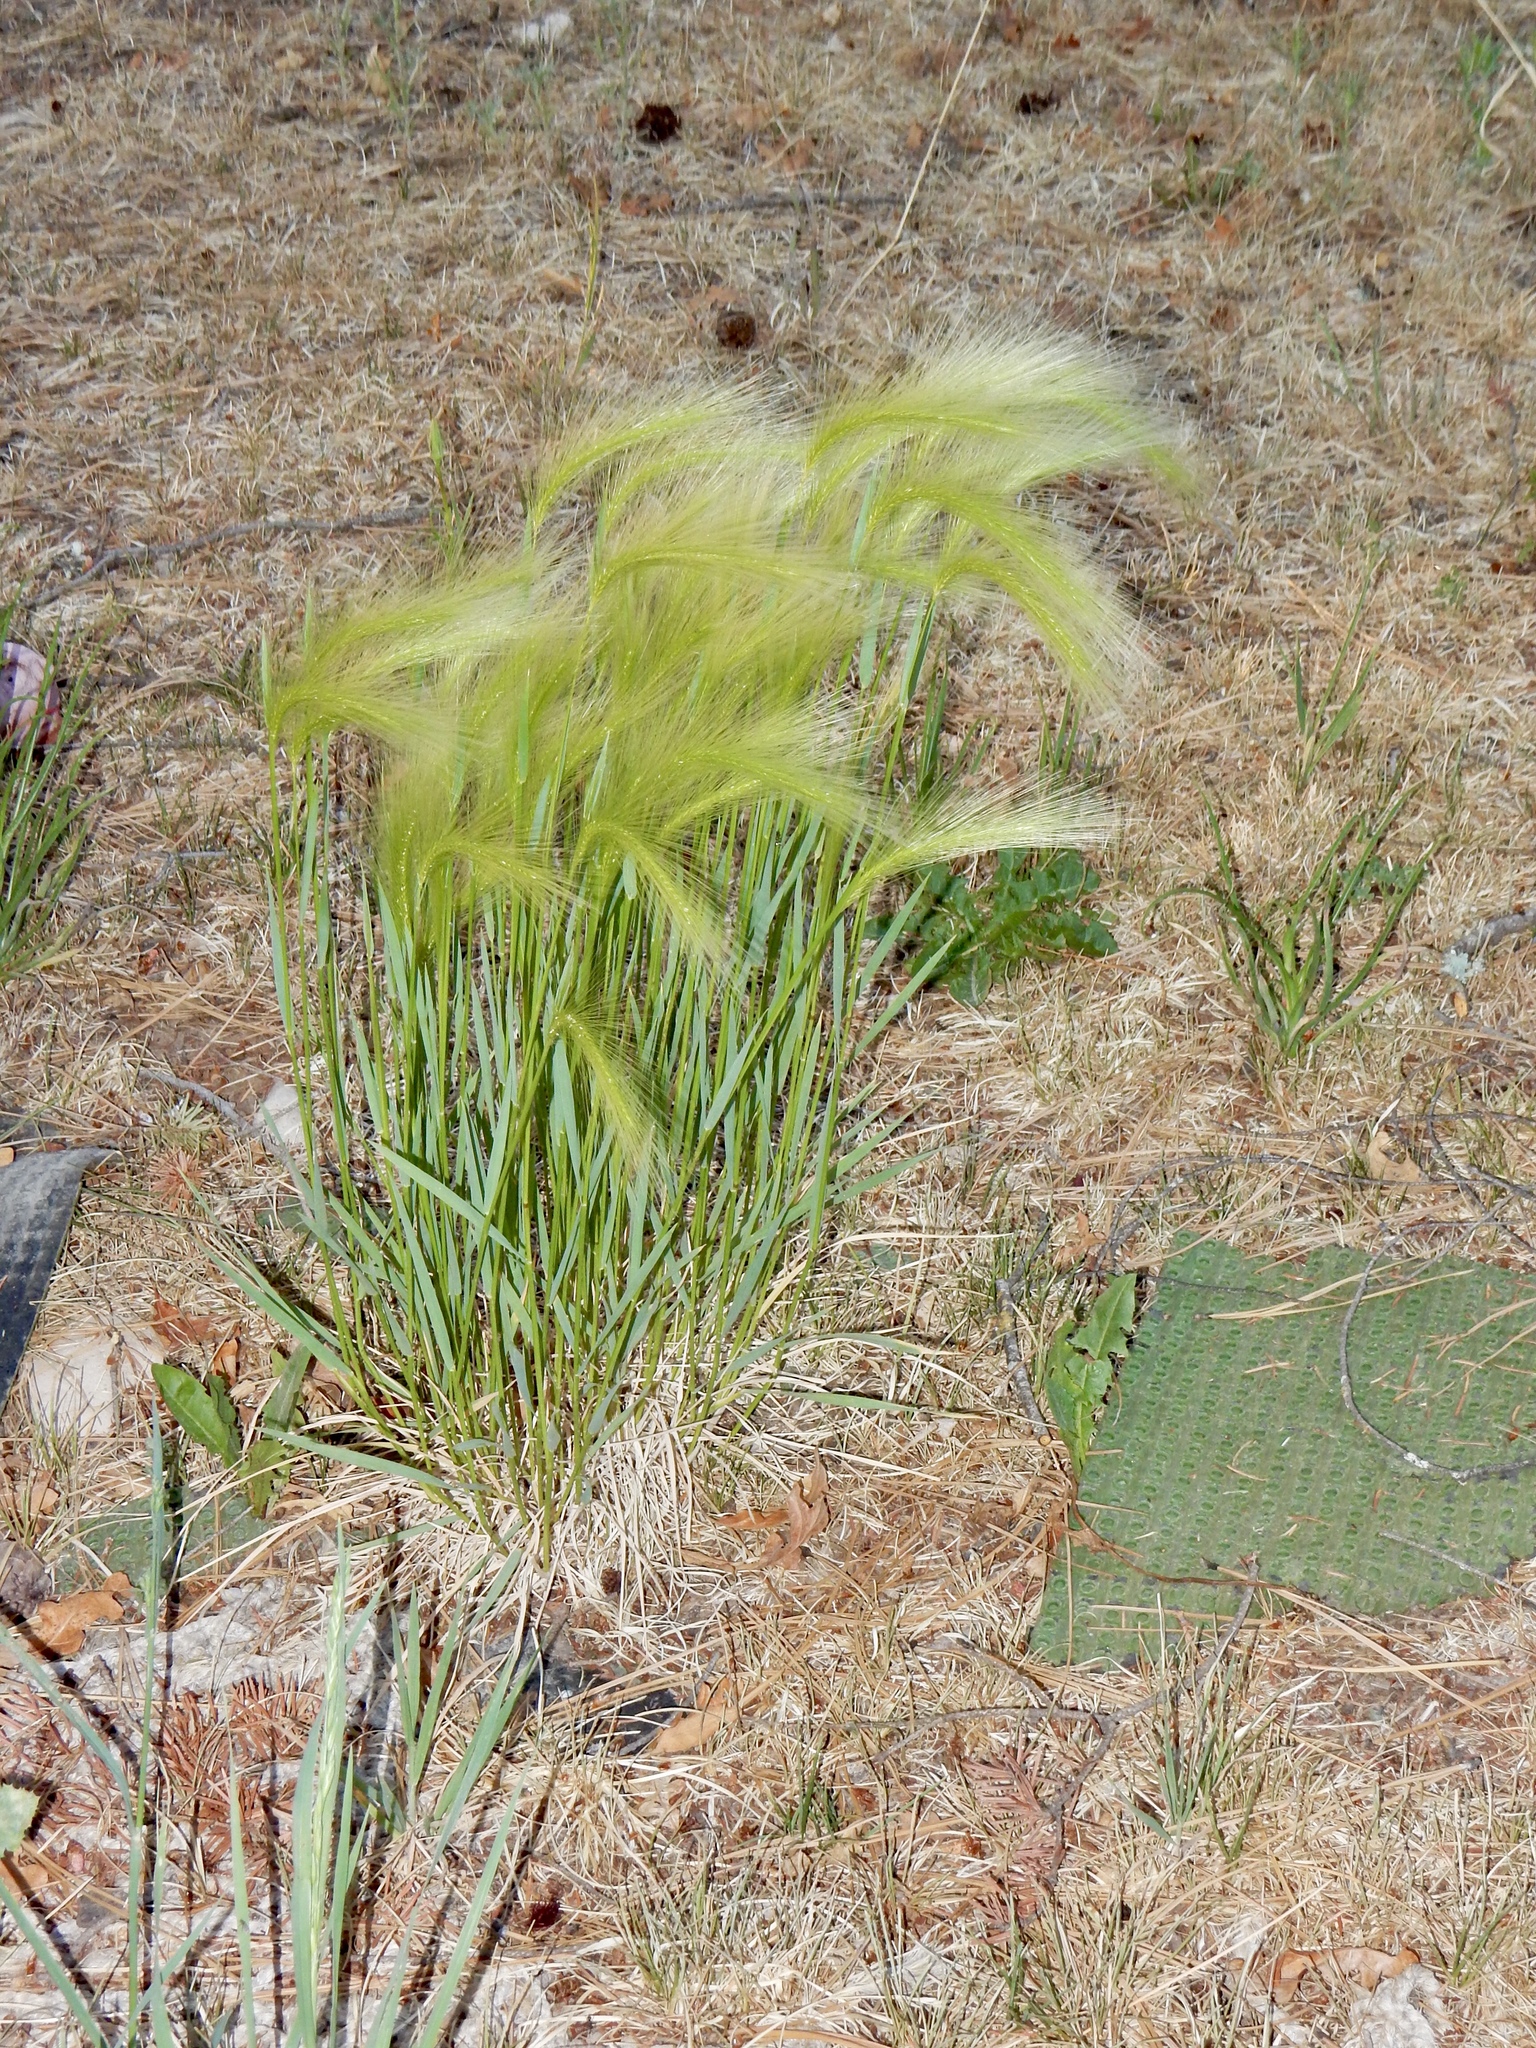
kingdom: Plantae
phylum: Tracheophyta
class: Liliopsida
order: Poales
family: Poaceae
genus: Hordeum
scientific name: Hordeum jubatum
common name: Foxtail barley
